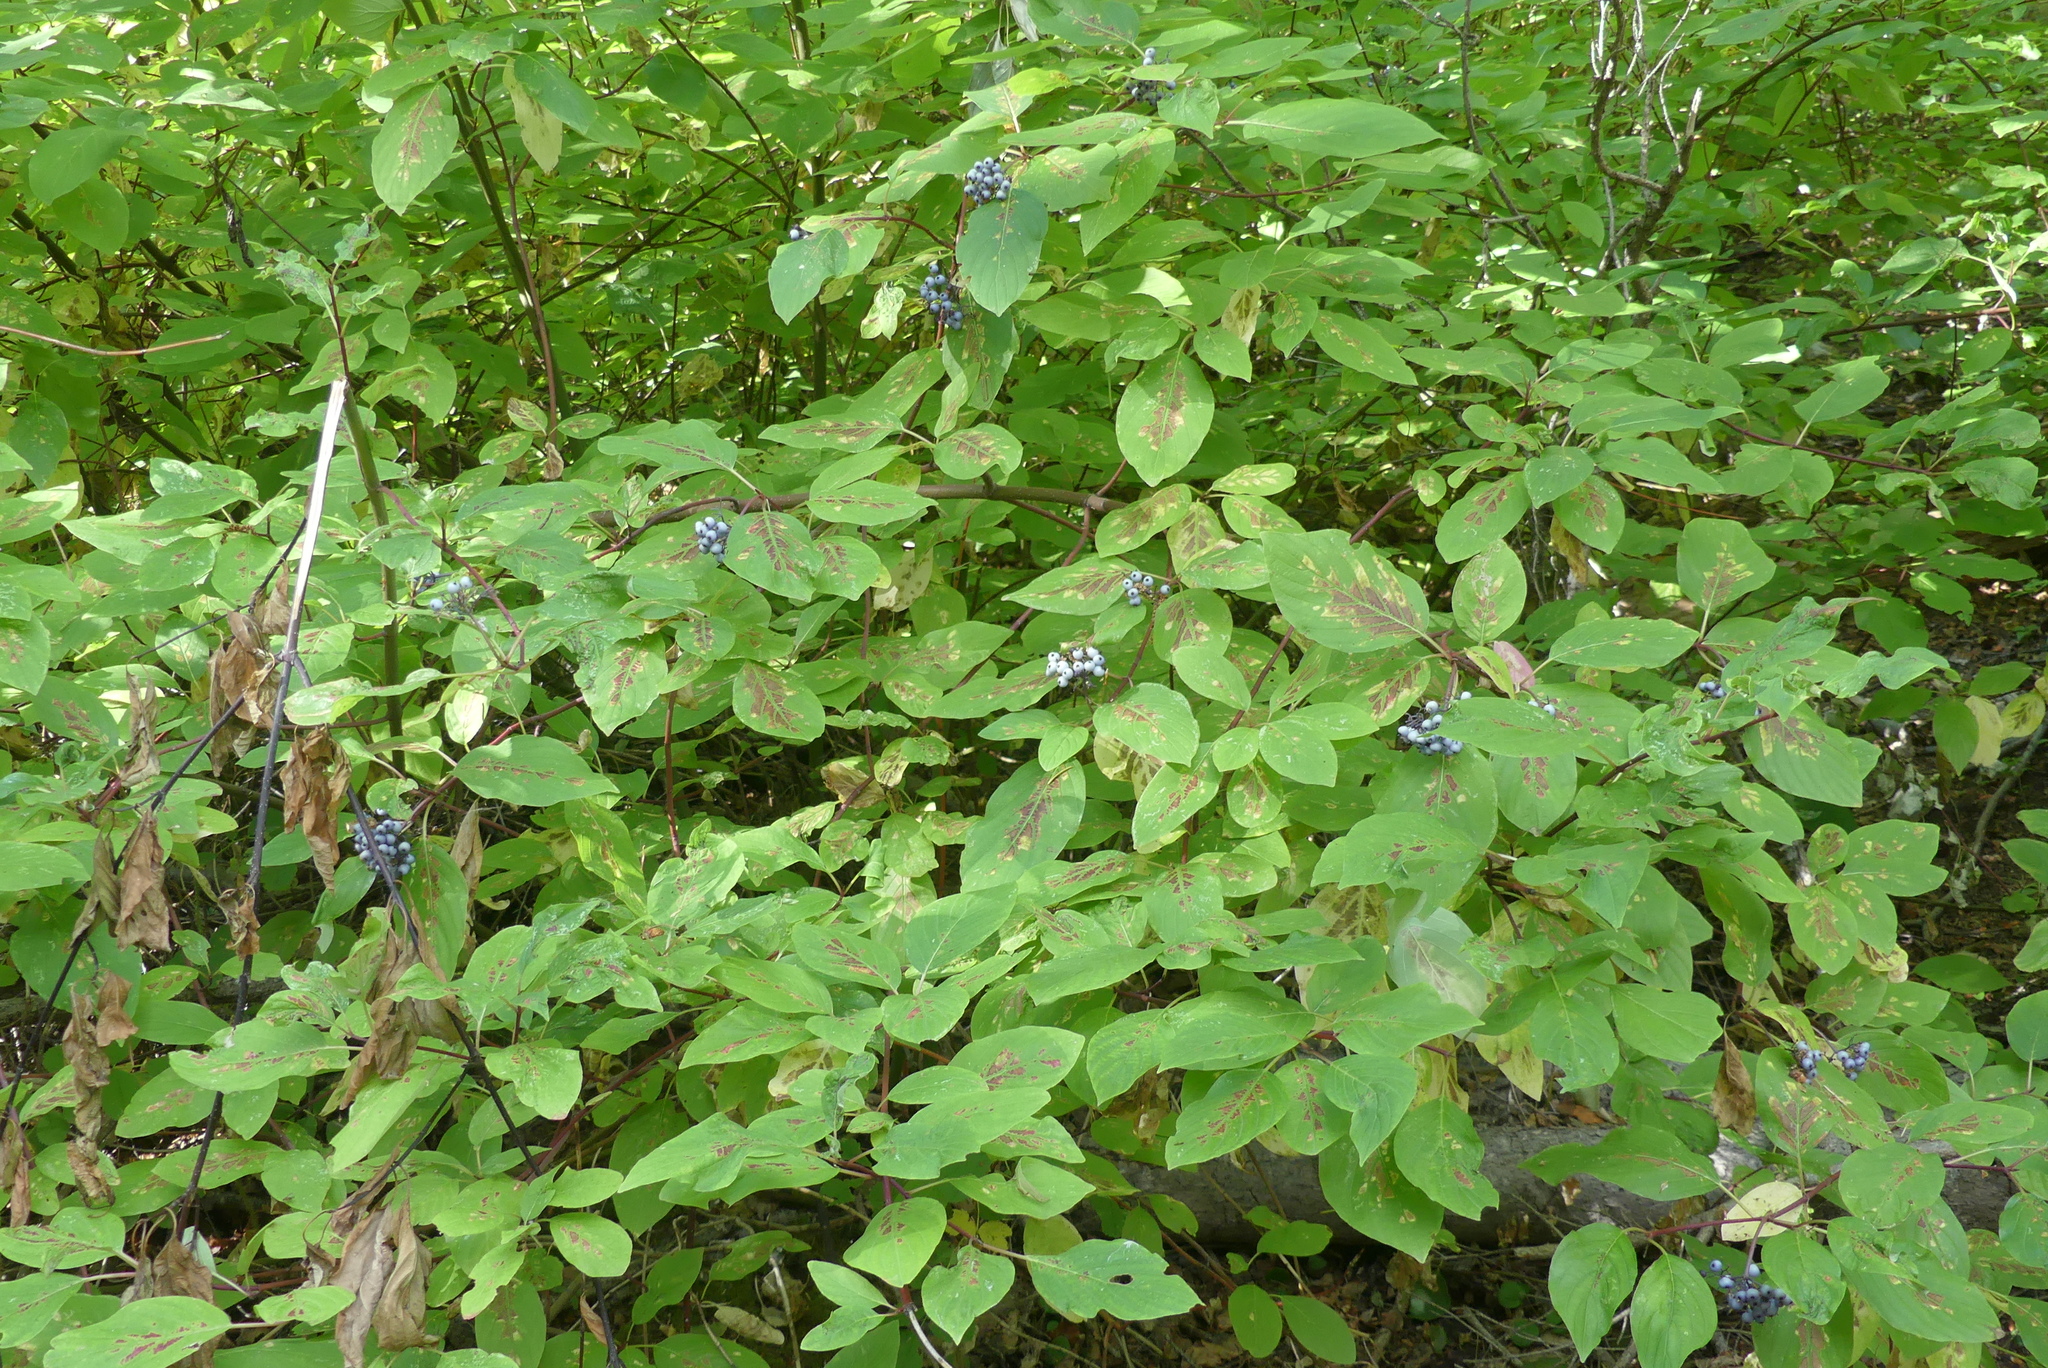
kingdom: Plantae
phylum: Tracheophyta
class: Magnoliopsida
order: Cornales
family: Cornaceae
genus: Cornus
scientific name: Cornus sericea
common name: Red-osier dogwood
